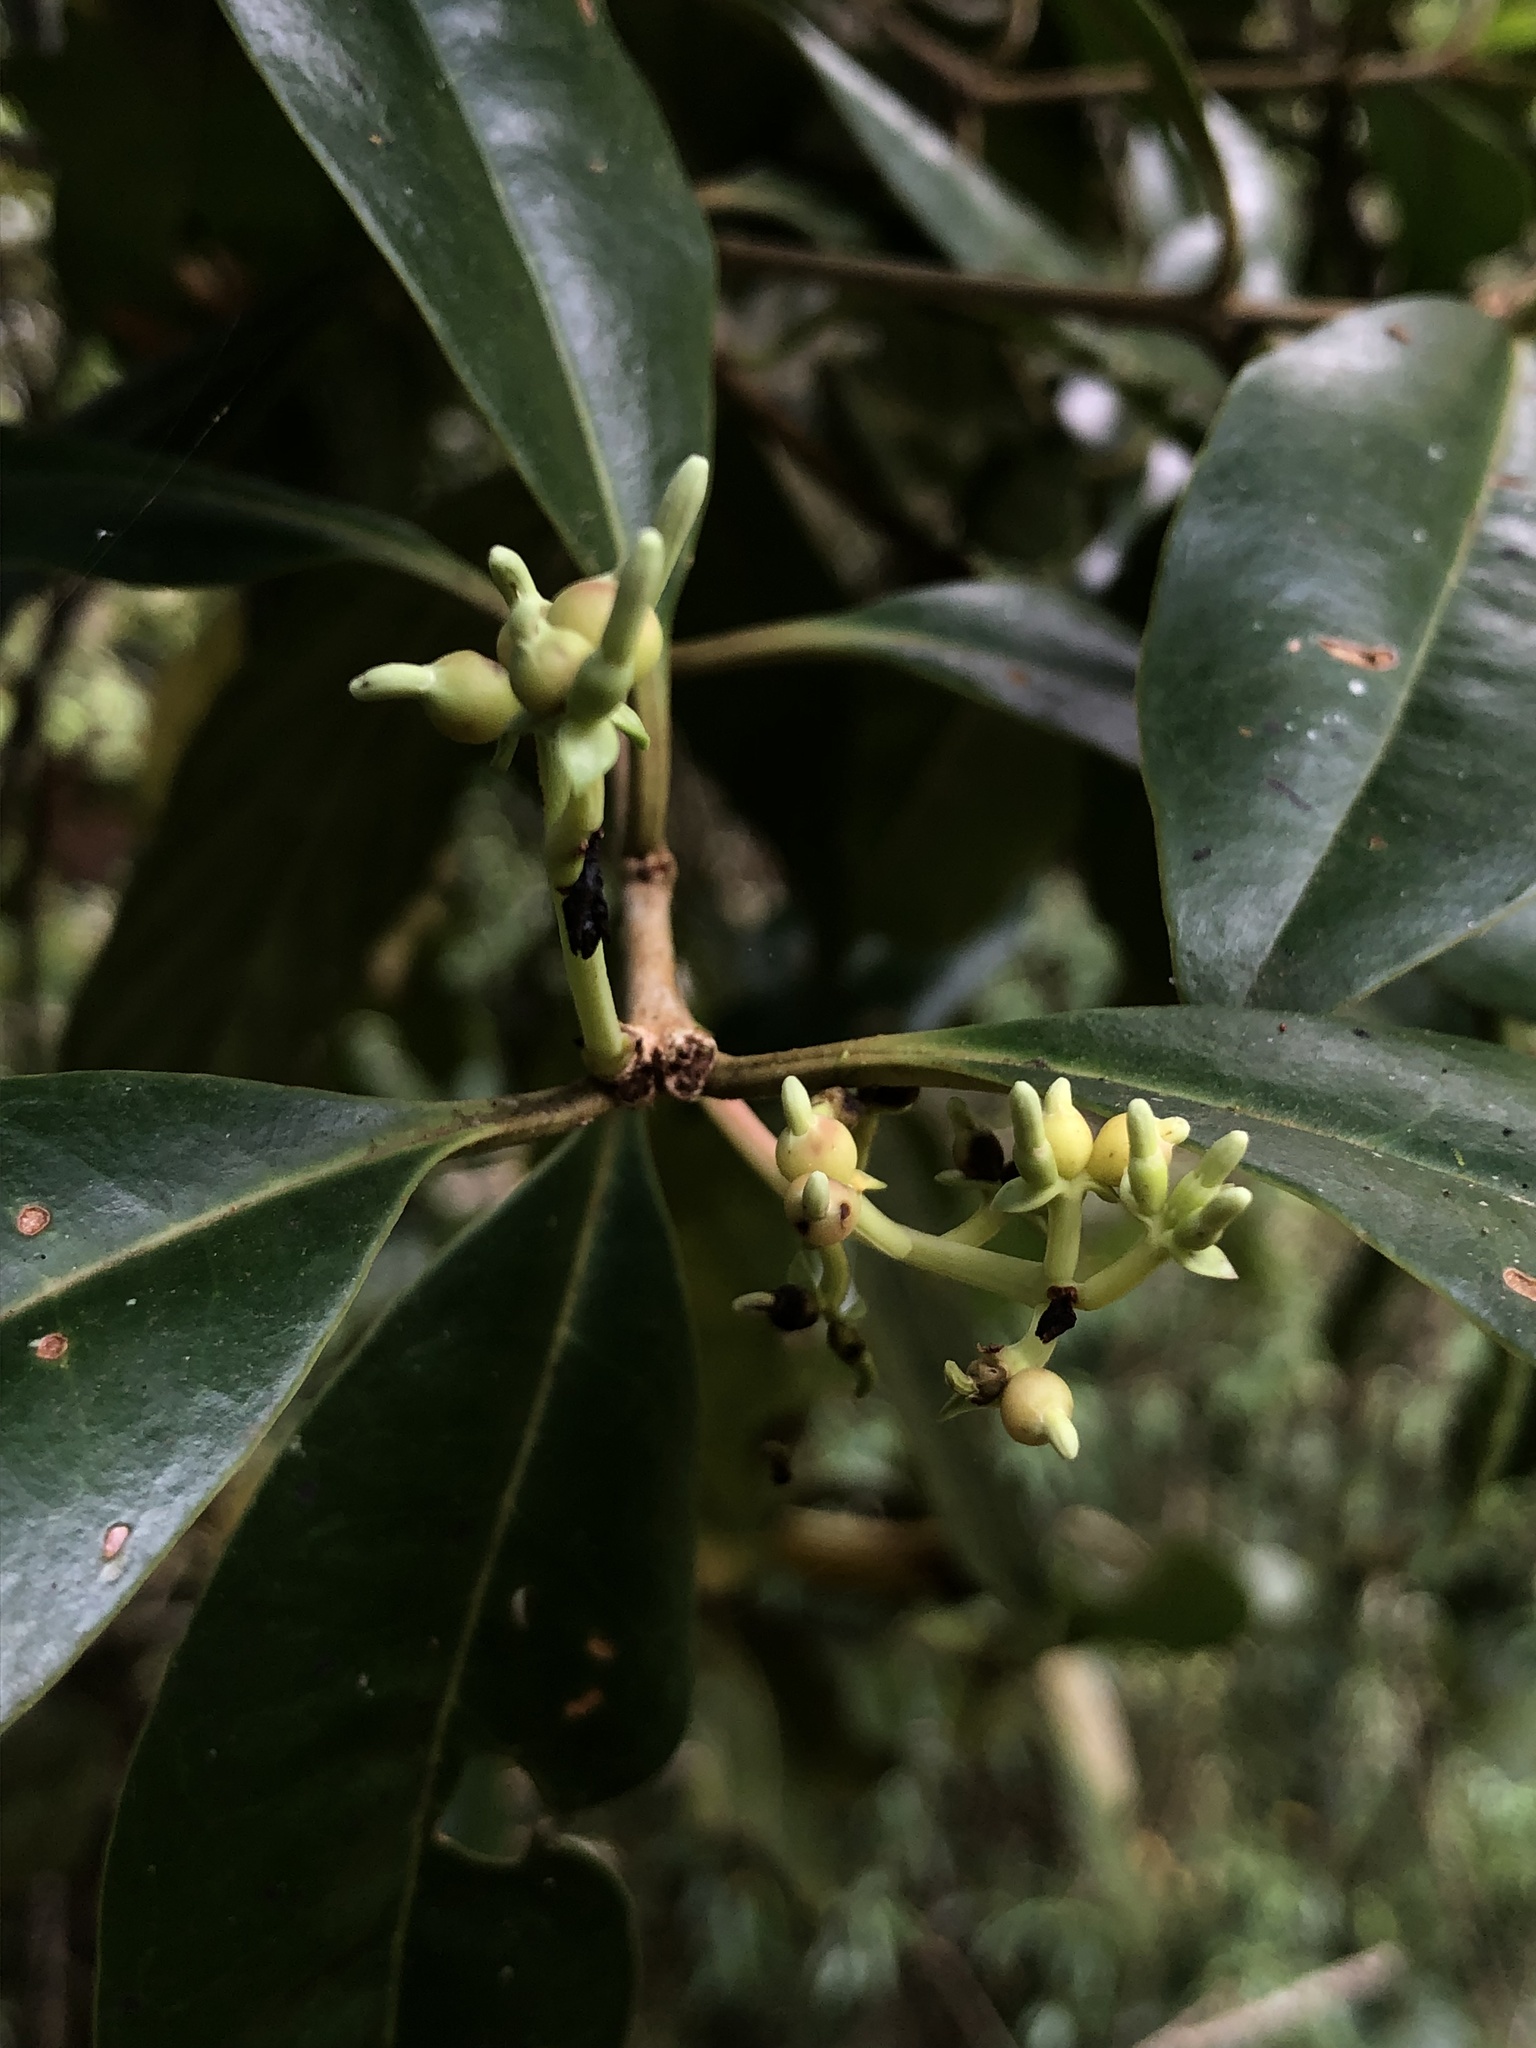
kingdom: Plantae
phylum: Tracheophyta
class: Magnoliopsida
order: Santalales
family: Loranthaceae
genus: Gaiadendron
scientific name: Gaiadendron punctatum
